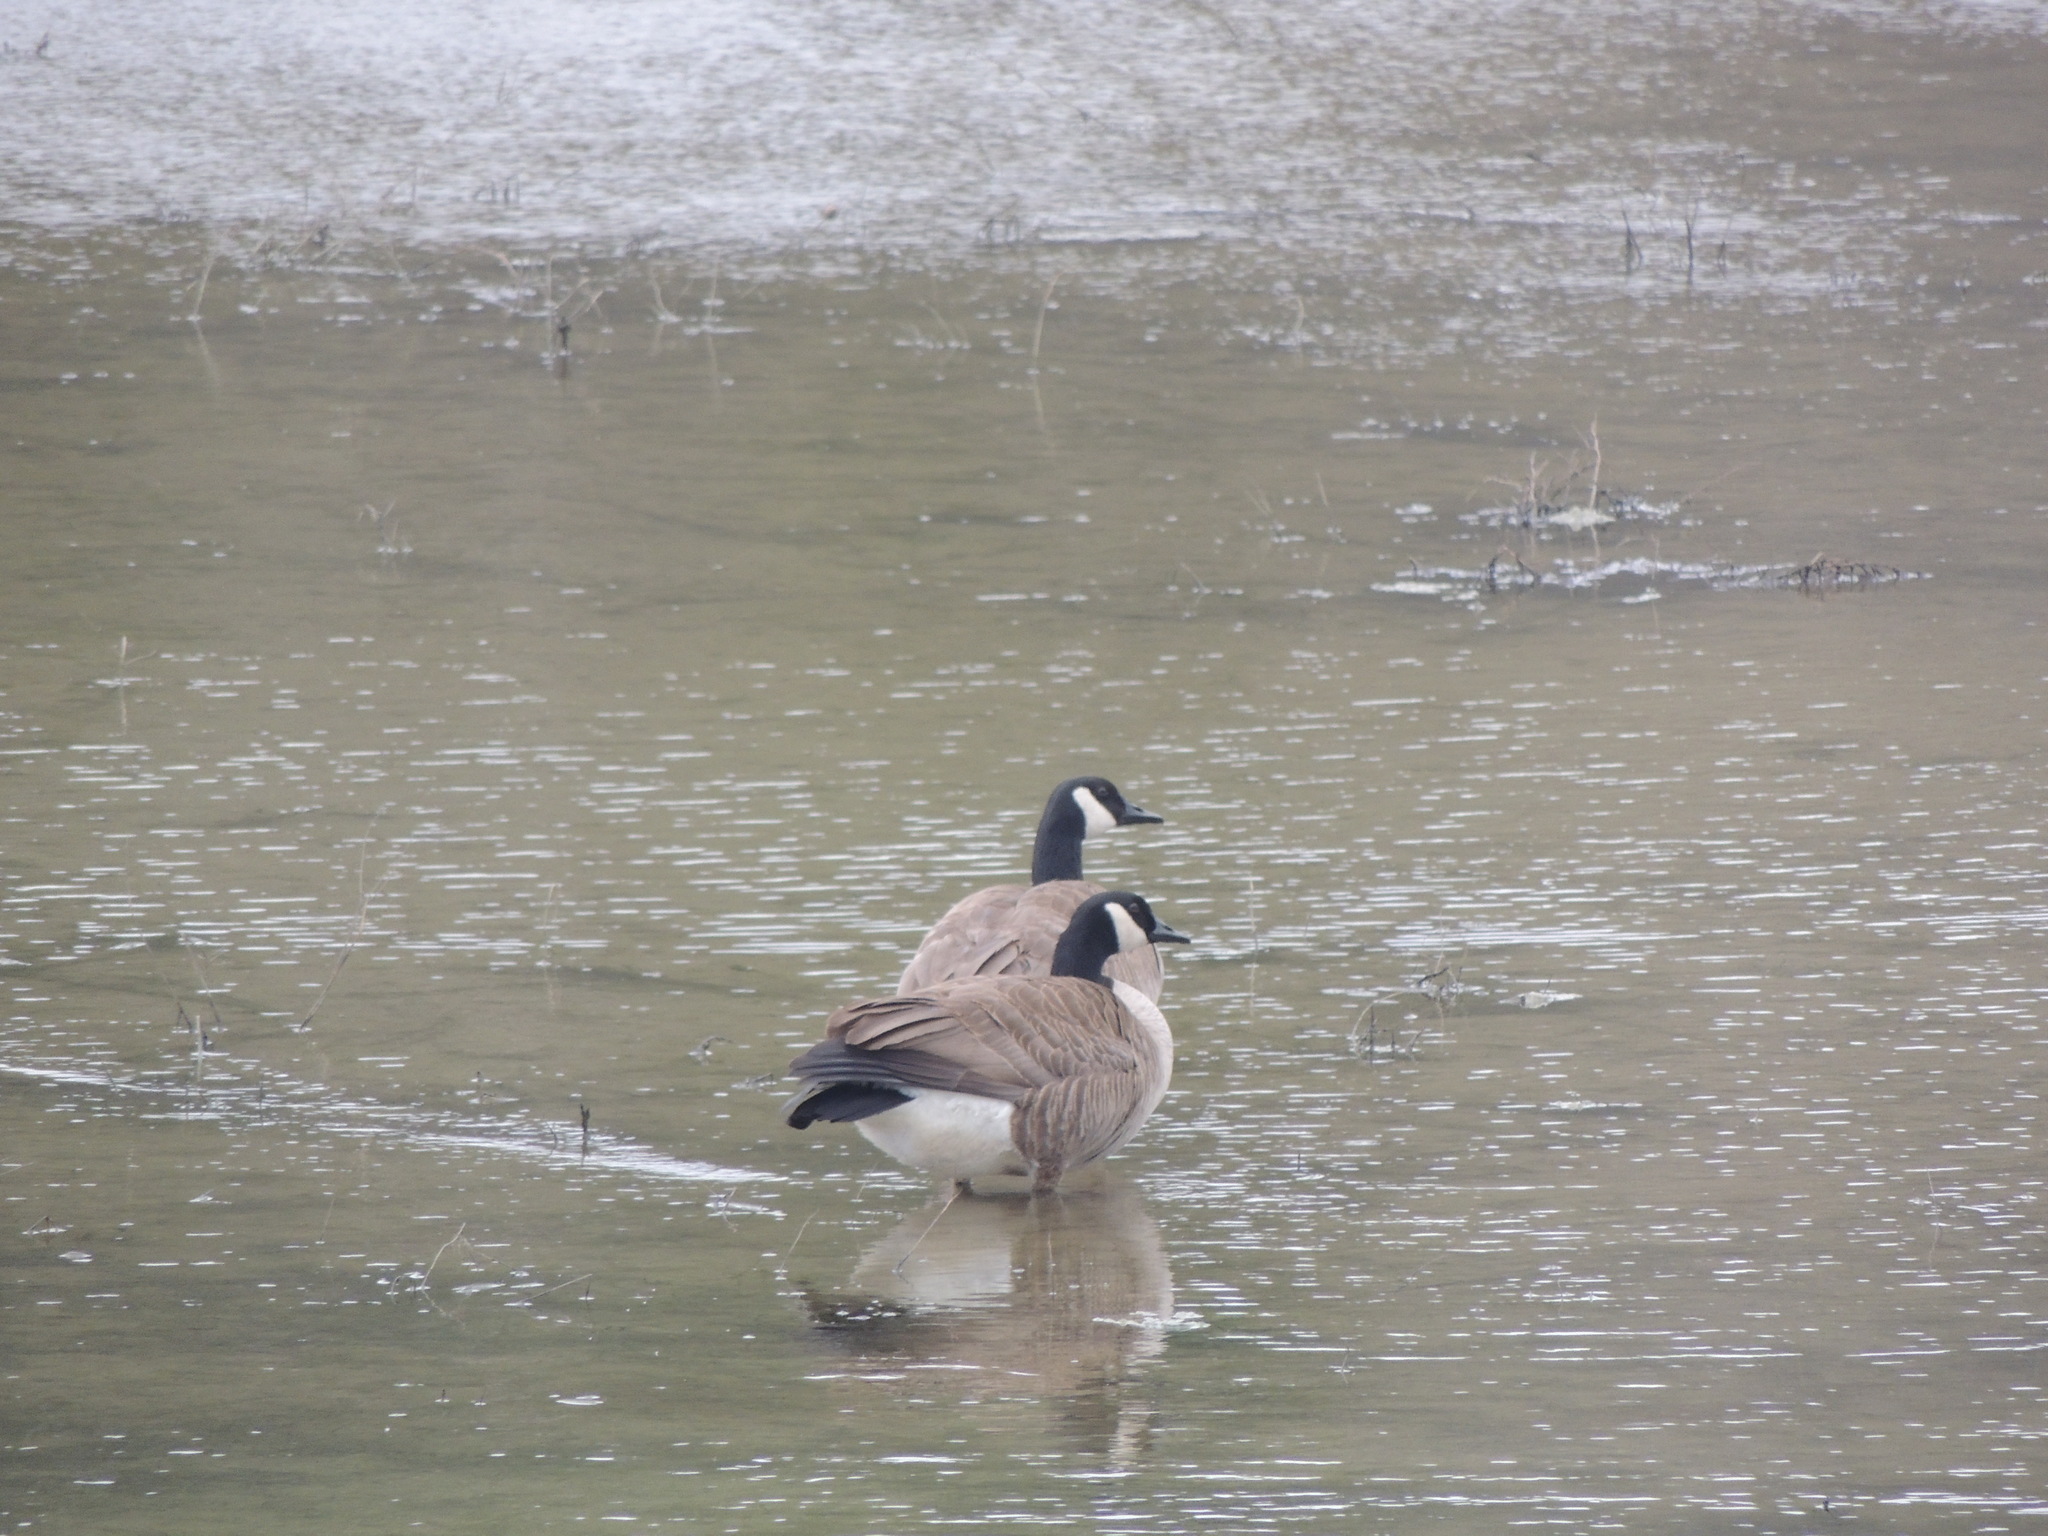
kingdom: Animalia
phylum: Chordata
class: Aves
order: Anseriformes
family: Anatidae
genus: Branta
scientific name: Branta canadensis
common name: Canada goose
